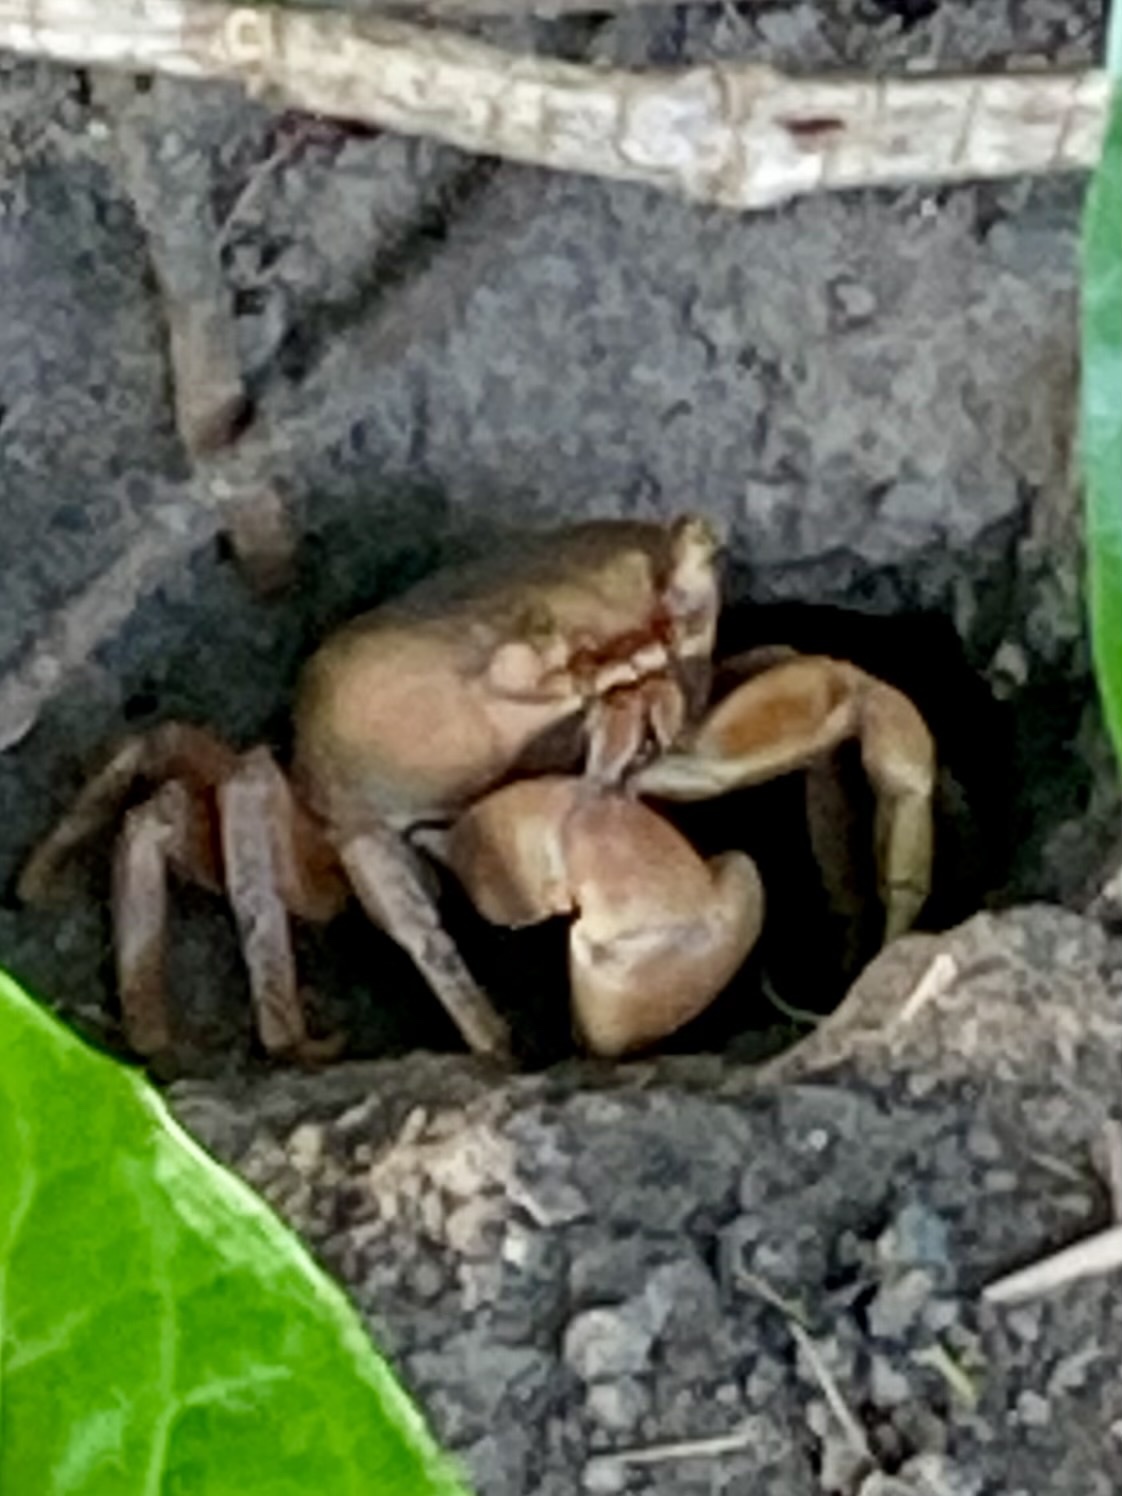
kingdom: Animalia
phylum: Arthropoda
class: Malacostraca
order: Decapoda
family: Gecarcinidae
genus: Cardisoma
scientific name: Cardisoma guanhumi
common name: Great land crab
